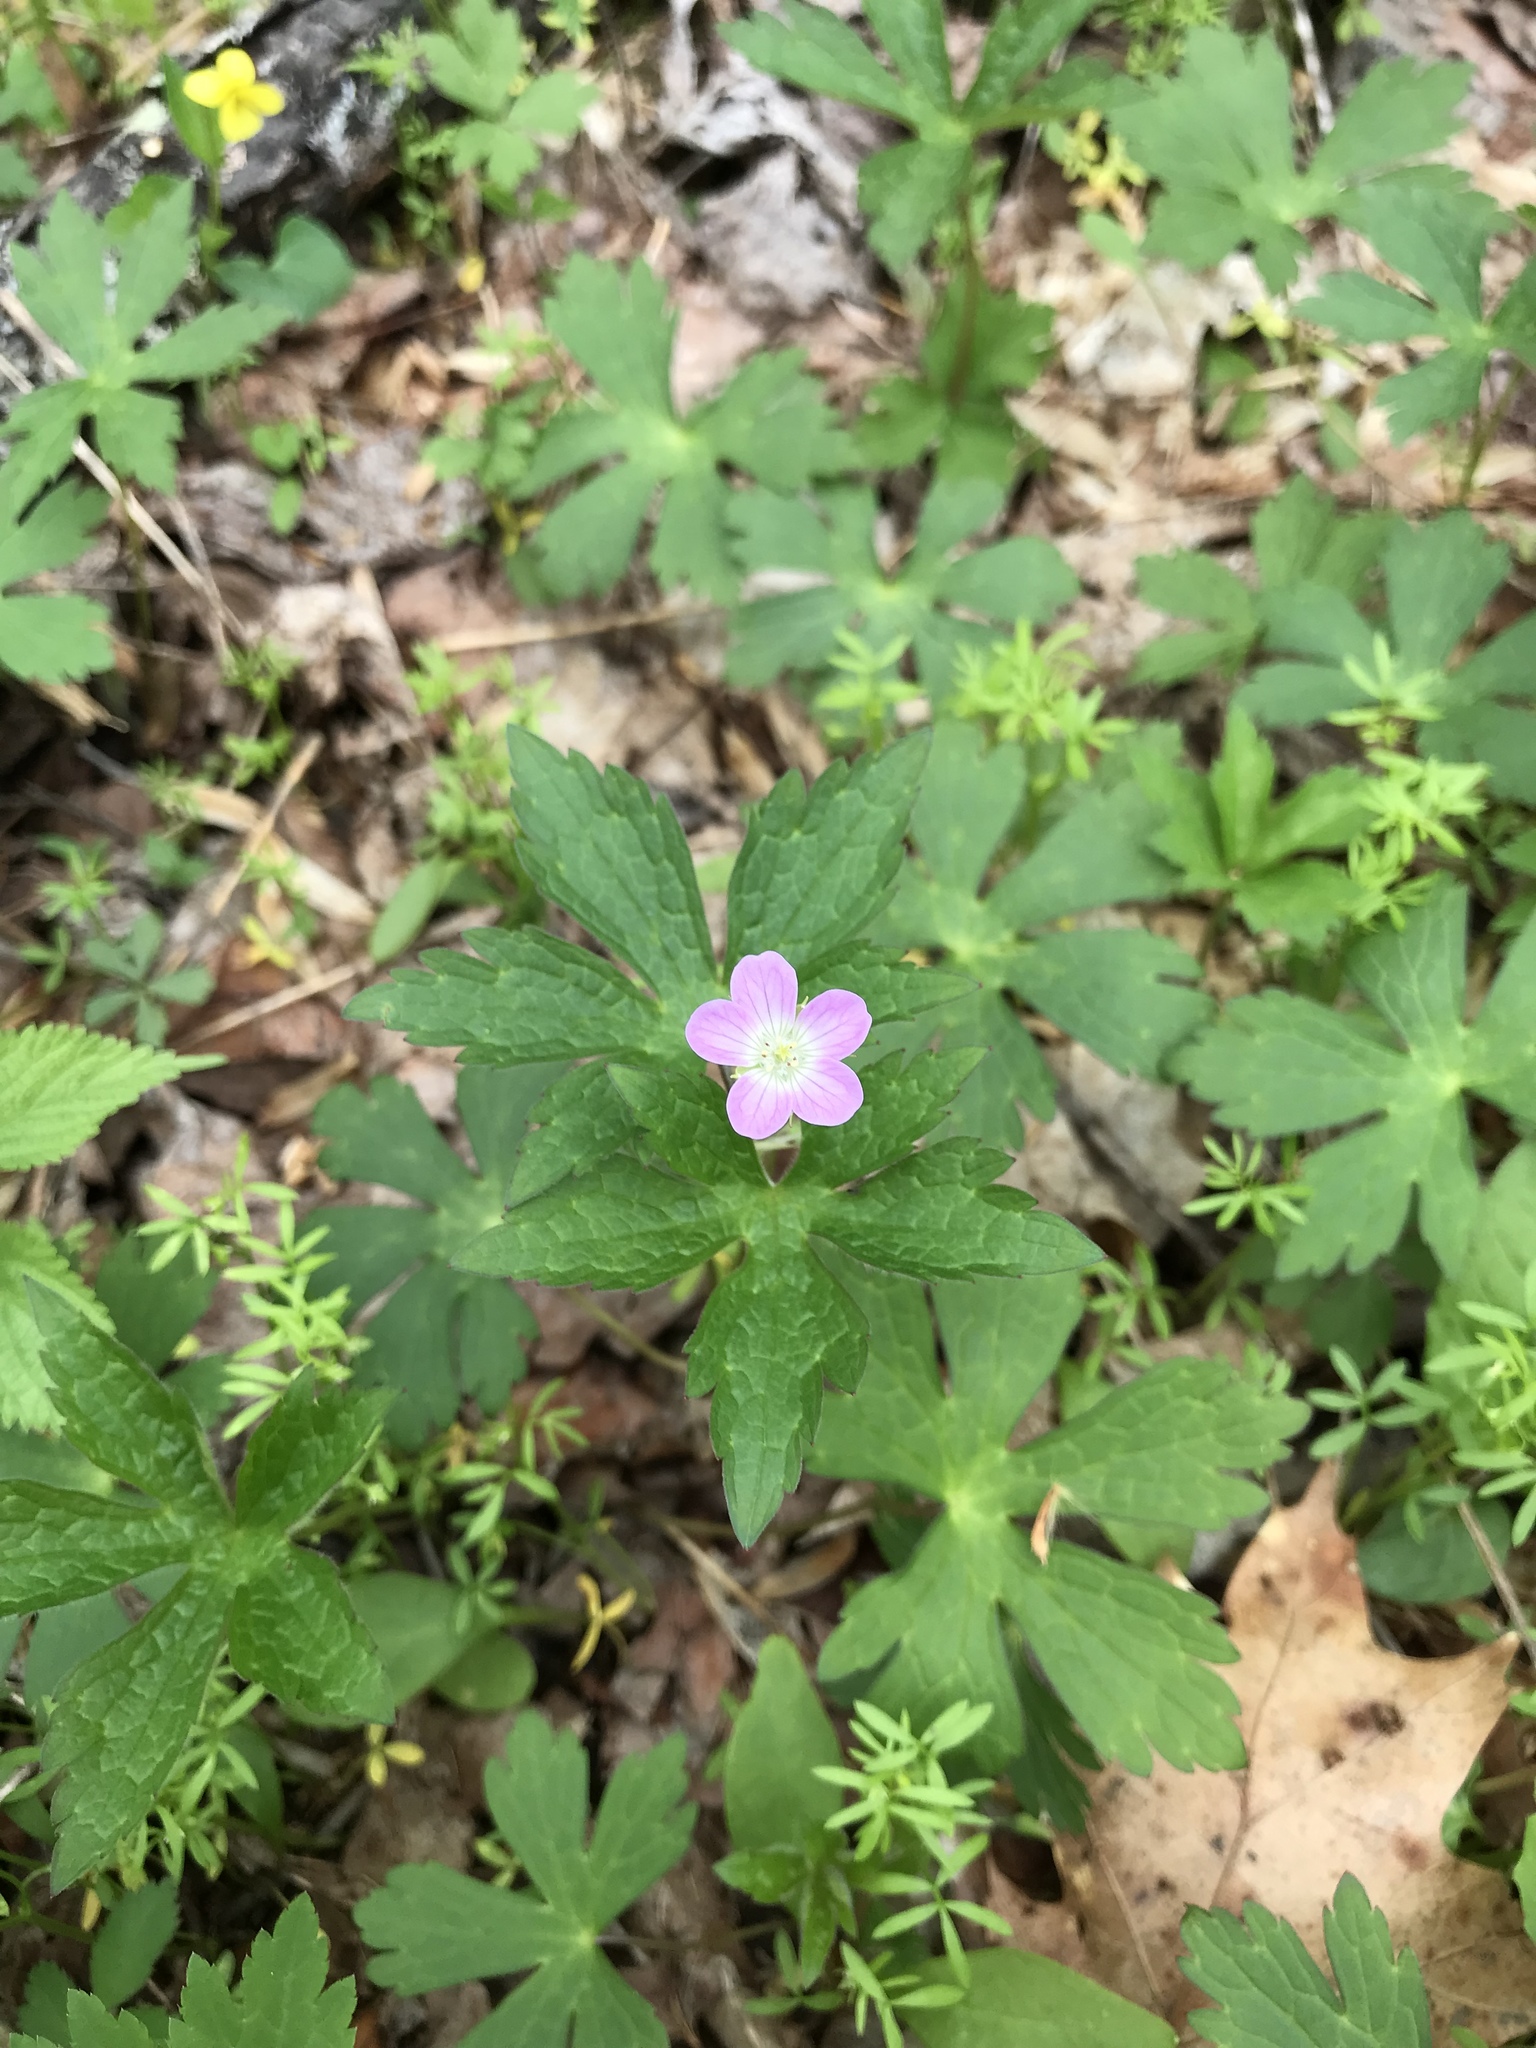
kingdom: Plantae
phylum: Tracheophyta
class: Magnoliopsida
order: Geraniales
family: Geraniaceae
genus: Geranium
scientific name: Geranium maculatum
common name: Spotted geranium
